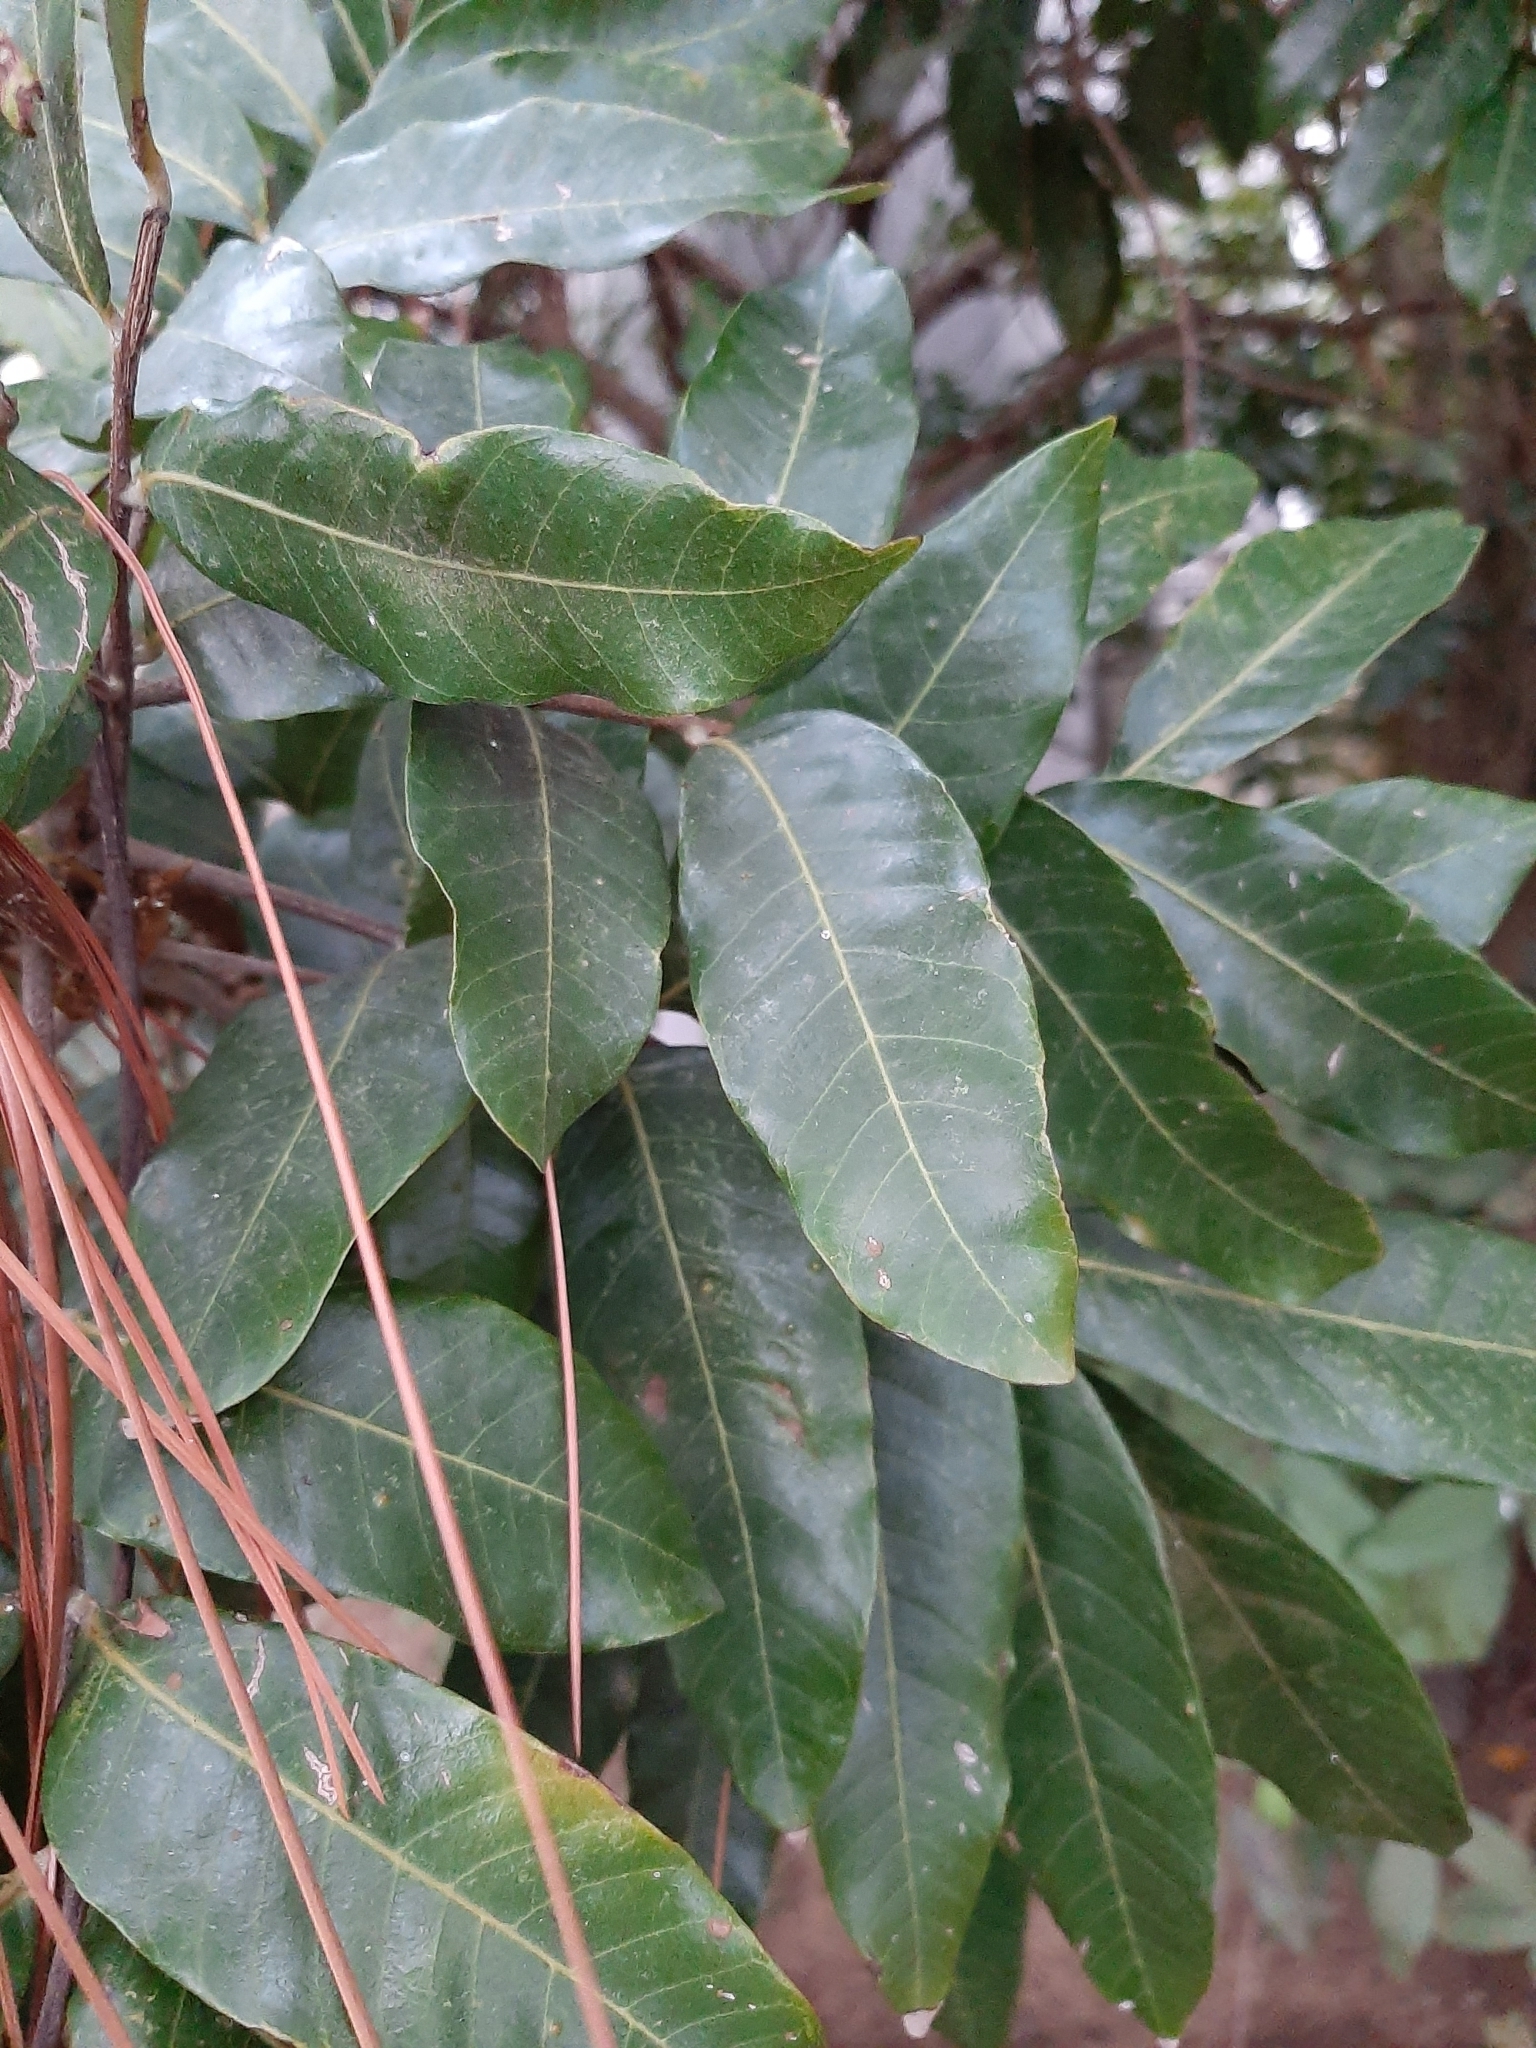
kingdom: Plantae
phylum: Tracheophyta
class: Magnoliopsida
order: Sapindales
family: Sapindaceae
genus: Dimocarpus
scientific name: Dimocarpus longan
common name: Longan
